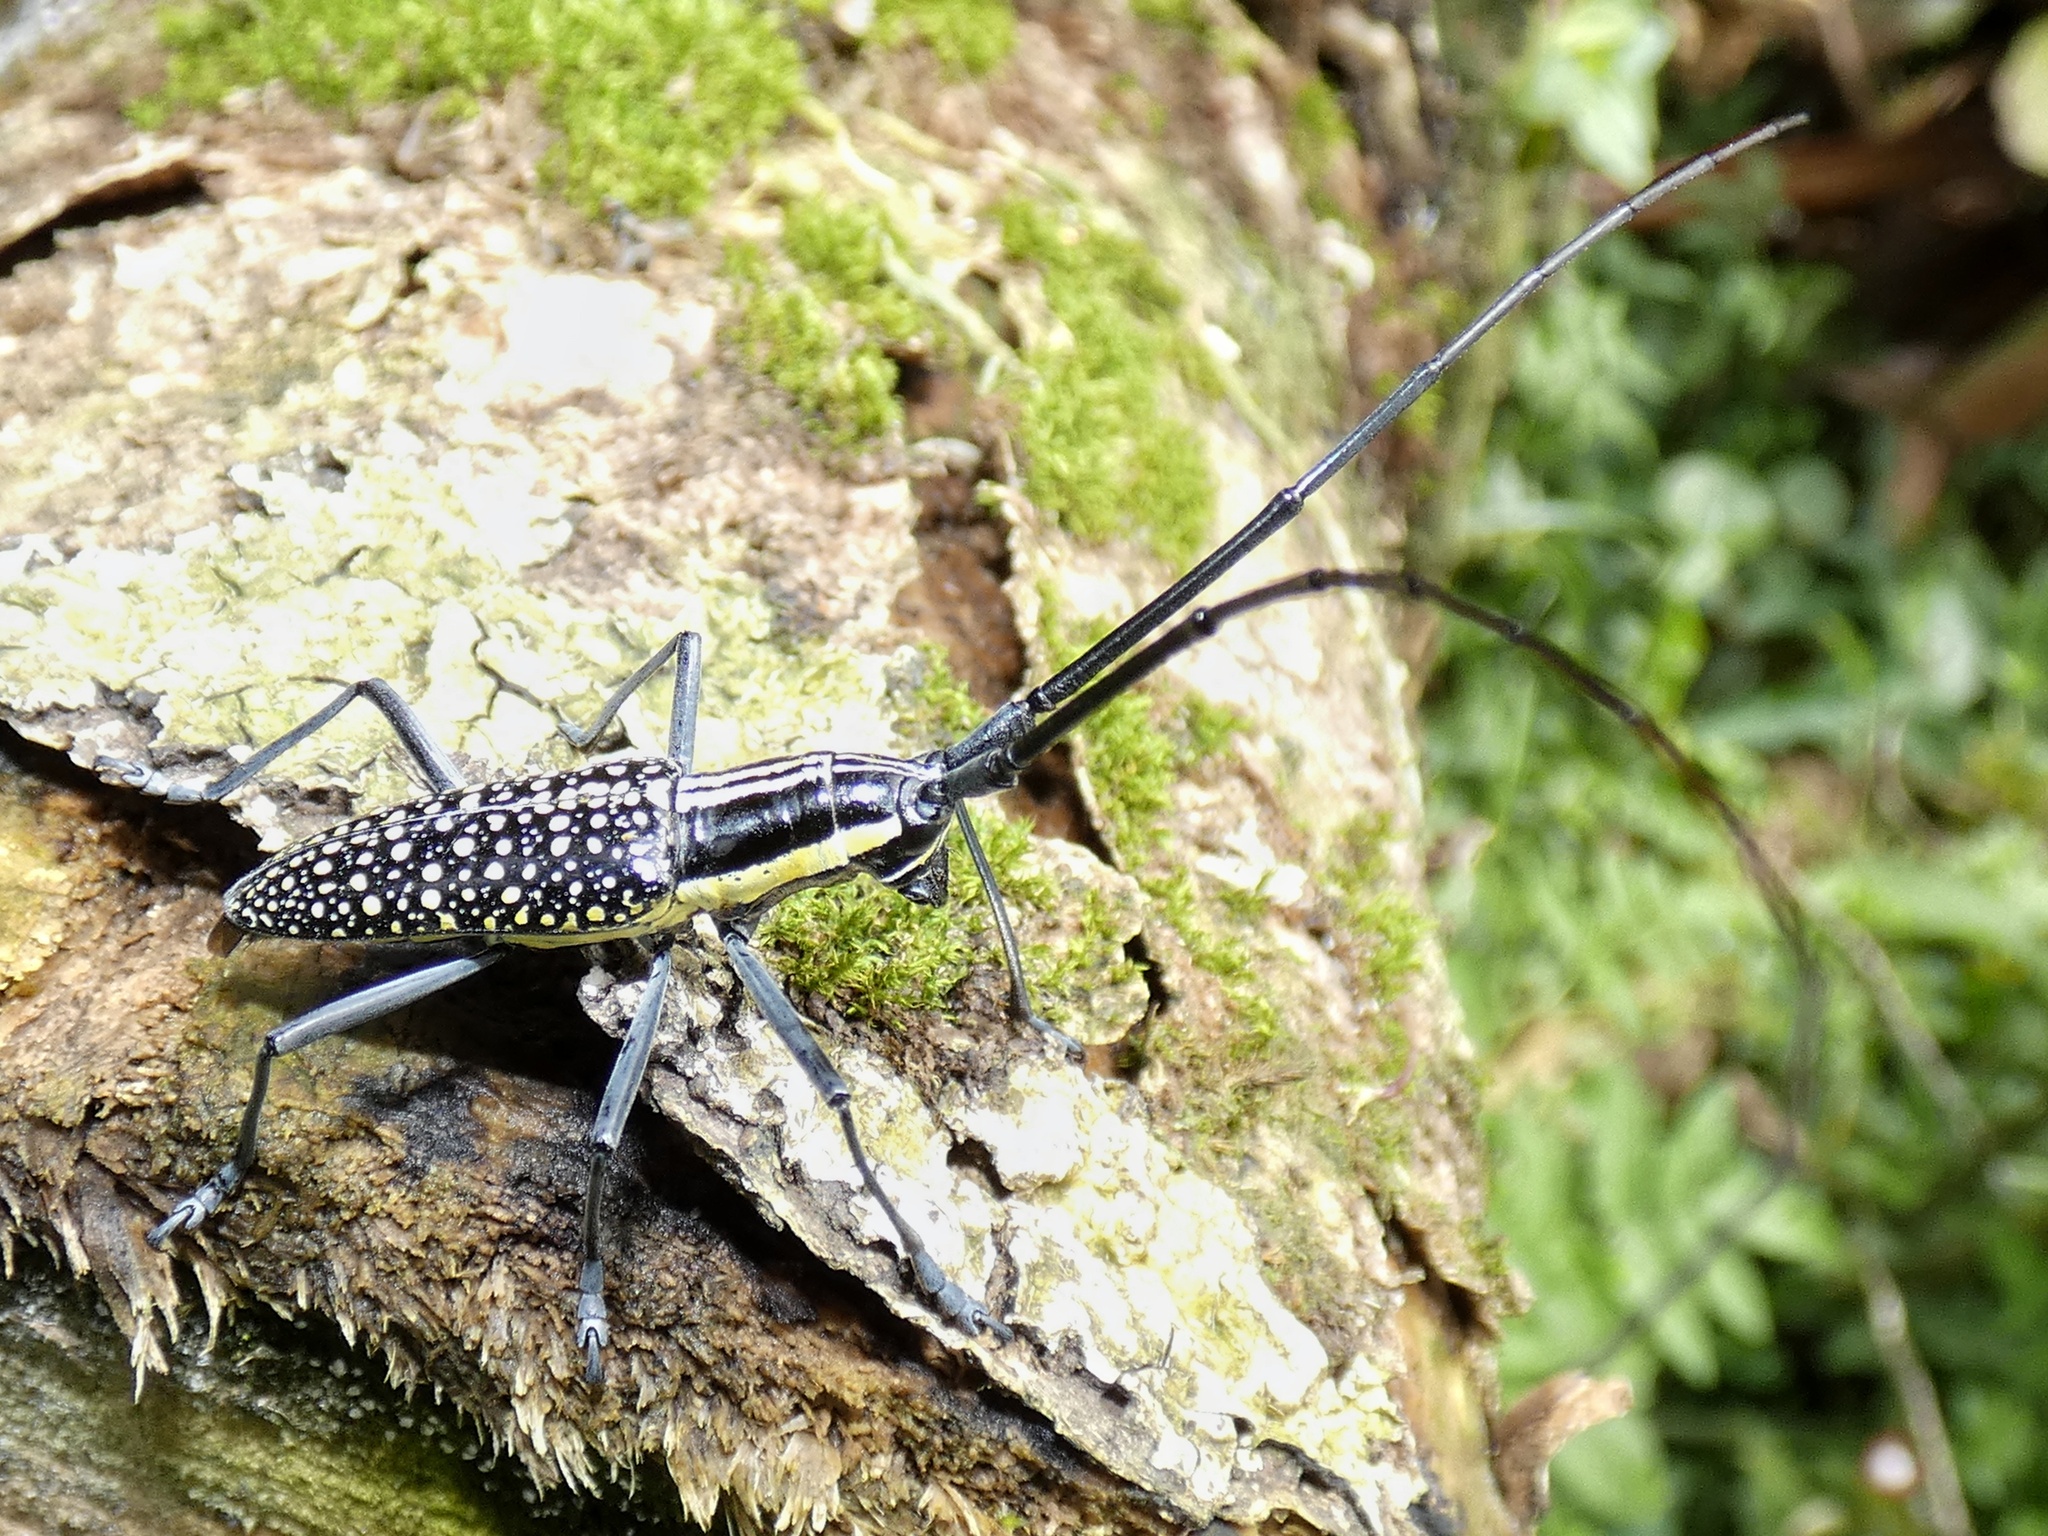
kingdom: Animalia
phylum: Arthropoda
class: Insecta
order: Coleoptera
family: Cerambycidae
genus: Ptychodes
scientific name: Ptychodes taeniotoides
